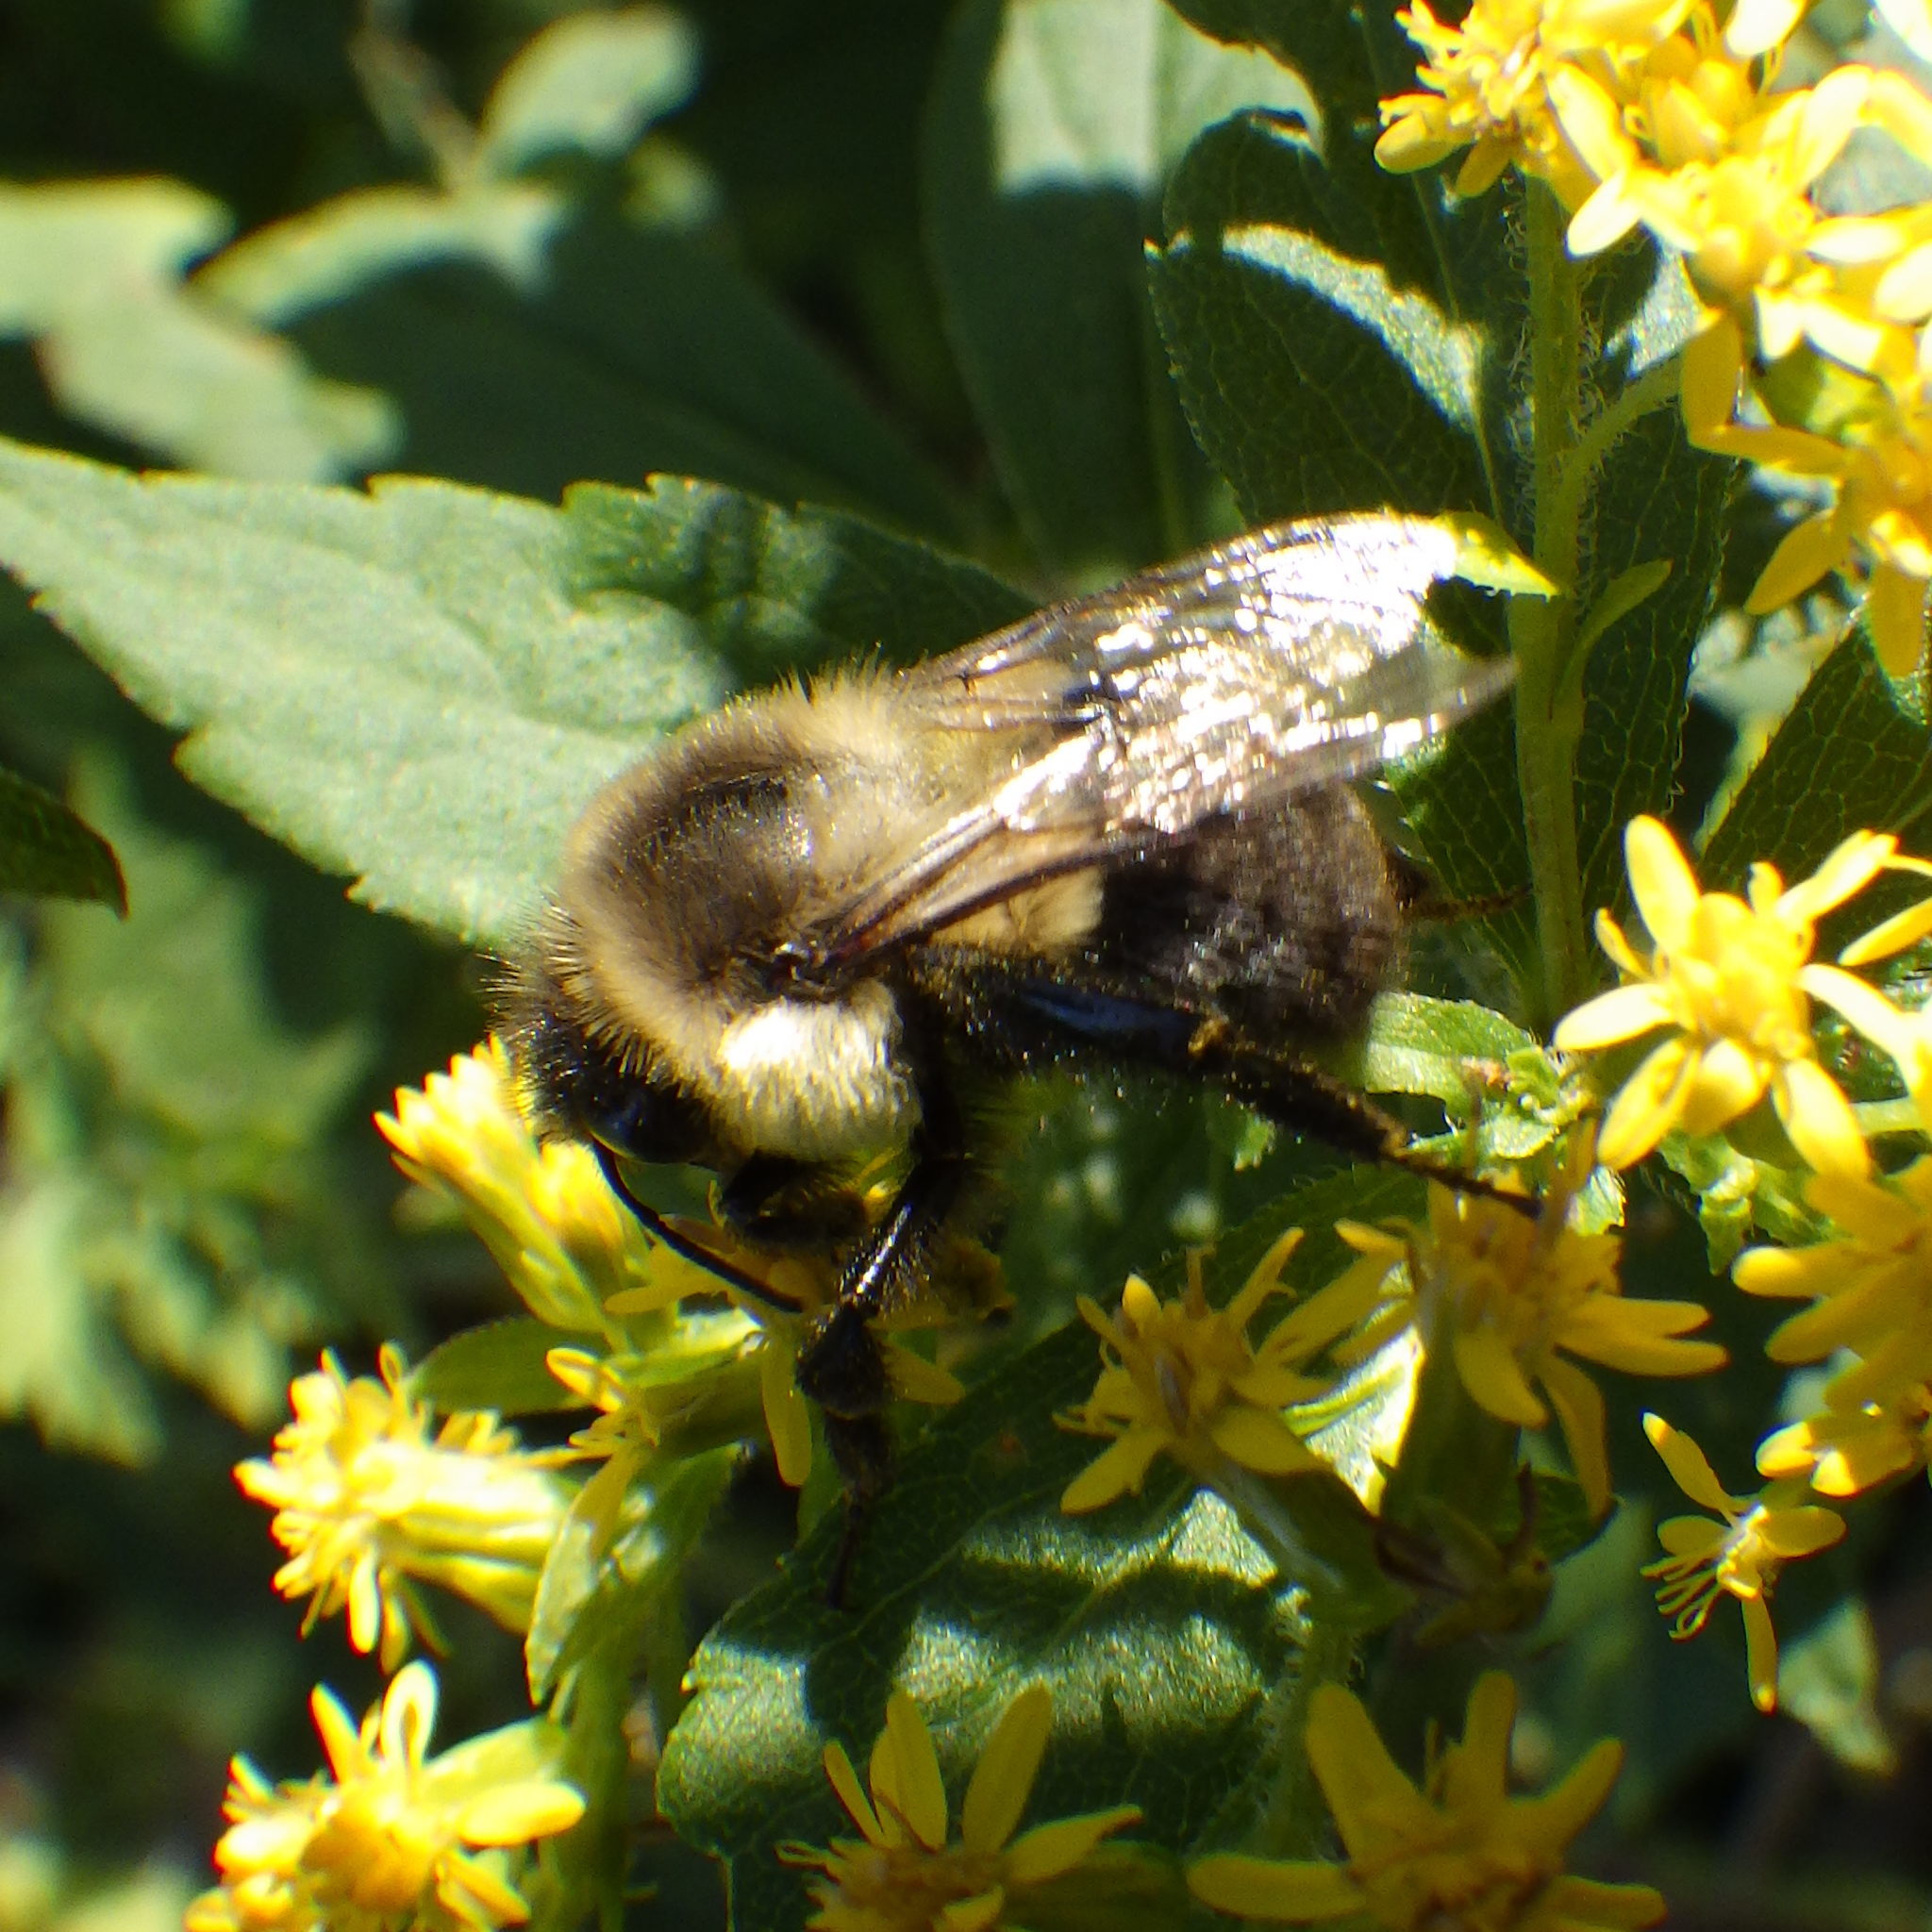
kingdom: Animalia
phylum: Arthropoda
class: Insecta
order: Hymenoptera
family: Apidae
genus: Bombus
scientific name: Bombus impatiens
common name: Common eastern bumble bee
